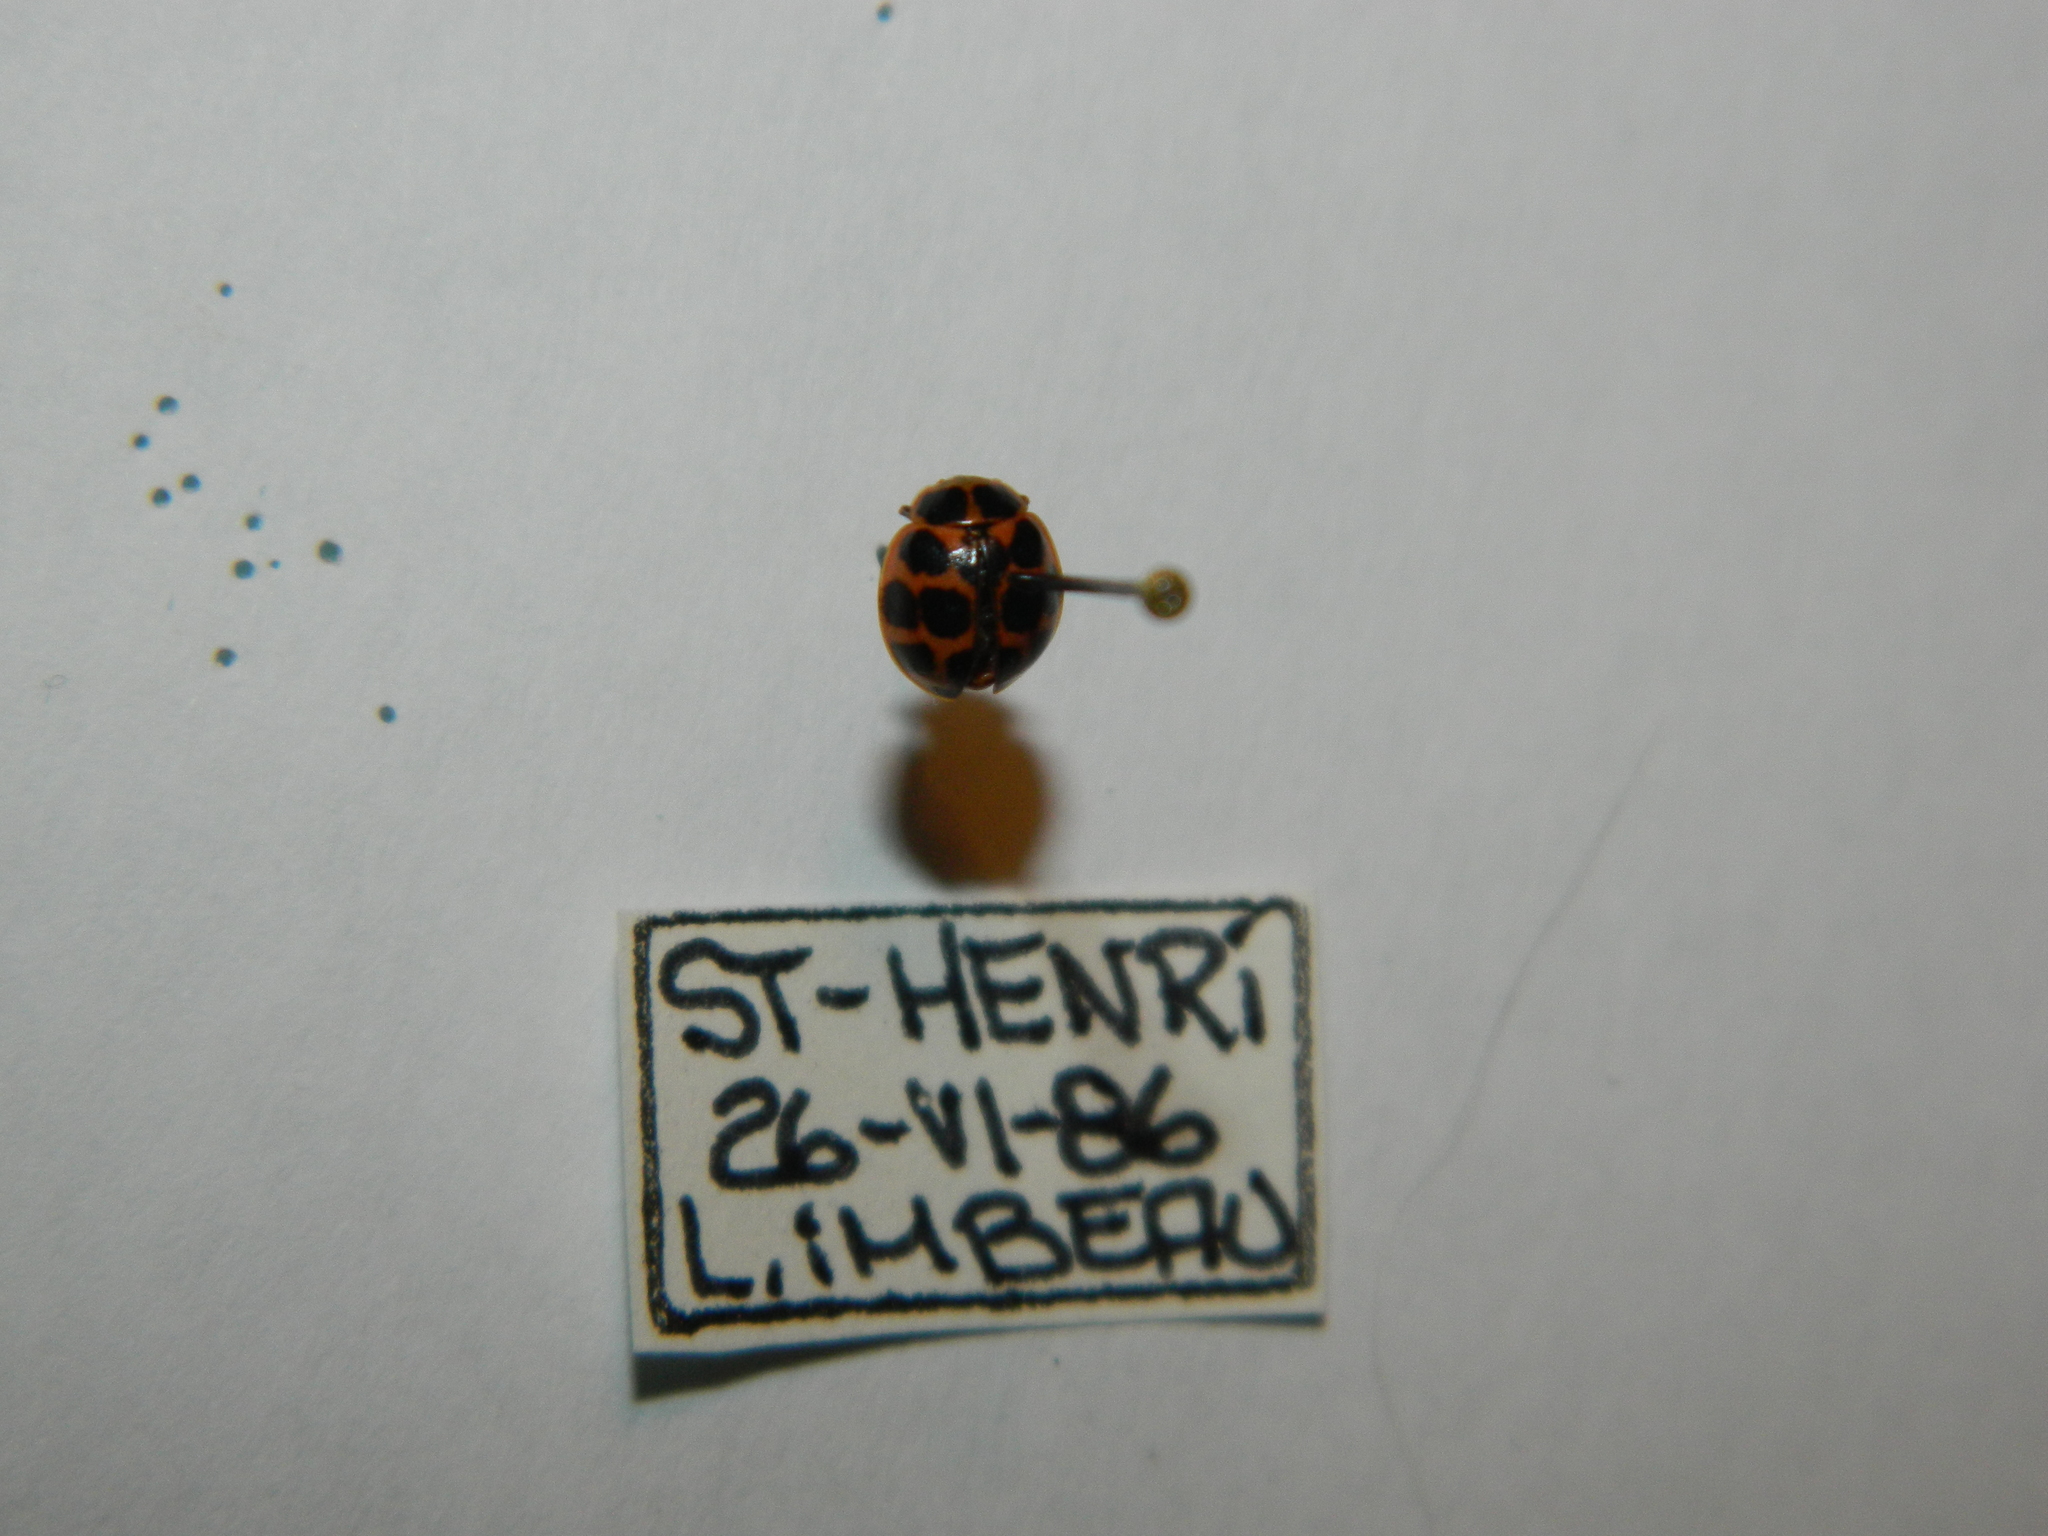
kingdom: Animalia
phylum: Arthropoda
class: Insecta
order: Coleoptera
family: Coccinellidae
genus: Calvia
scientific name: Calvia quatuordecimguttata
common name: Cream-spot ladybird
